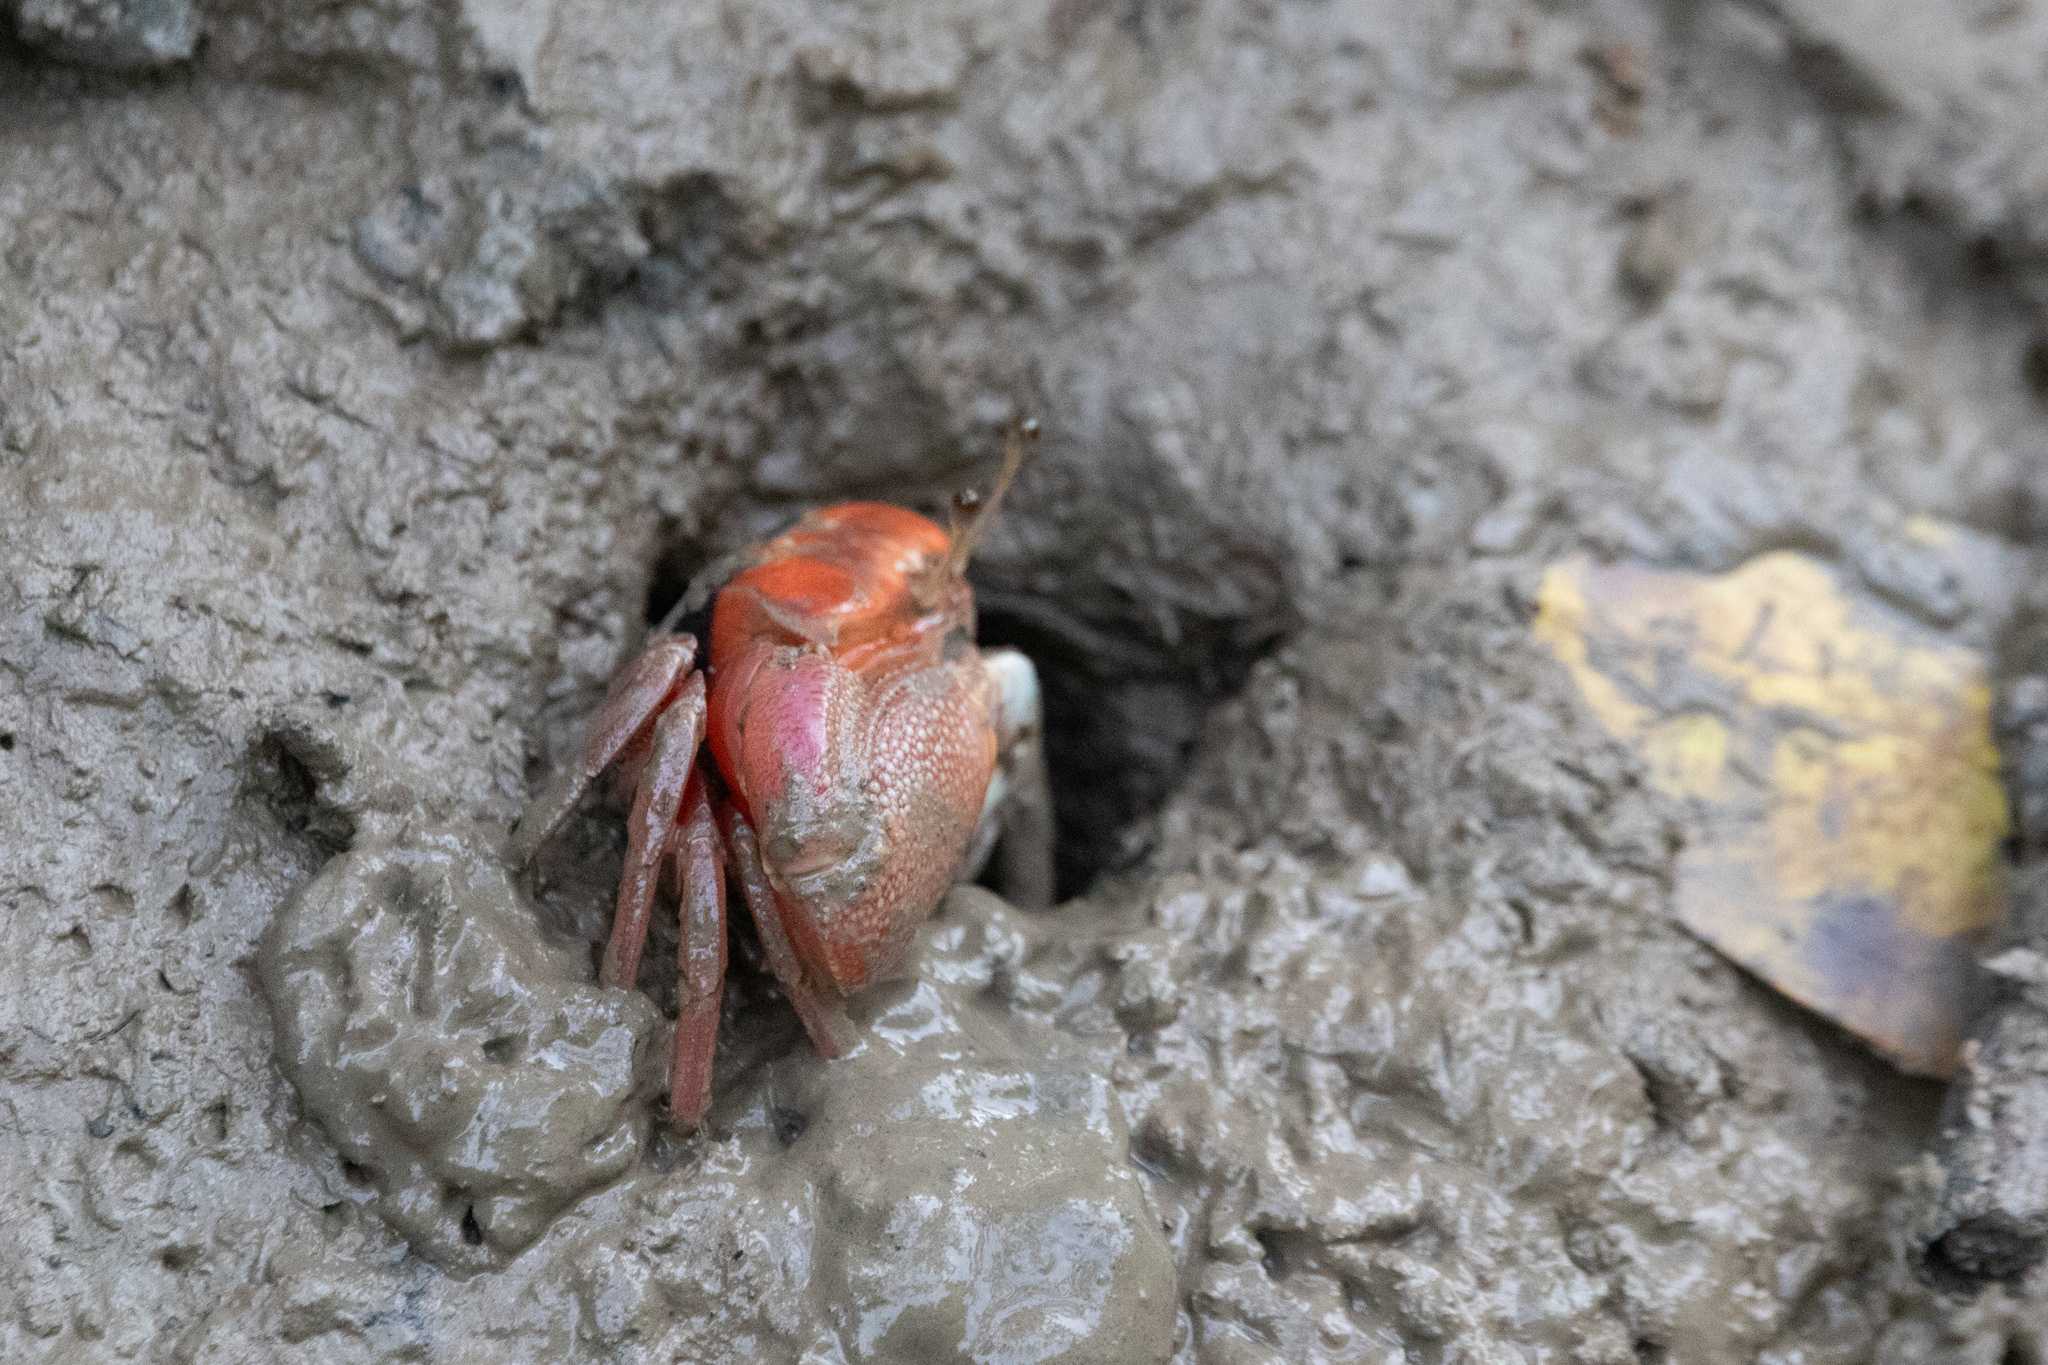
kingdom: Animalia
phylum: Arthropoda
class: Malacostraca
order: Decapoda
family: Ocypodidae
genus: Tubuca
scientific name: Tubuca arcuata
